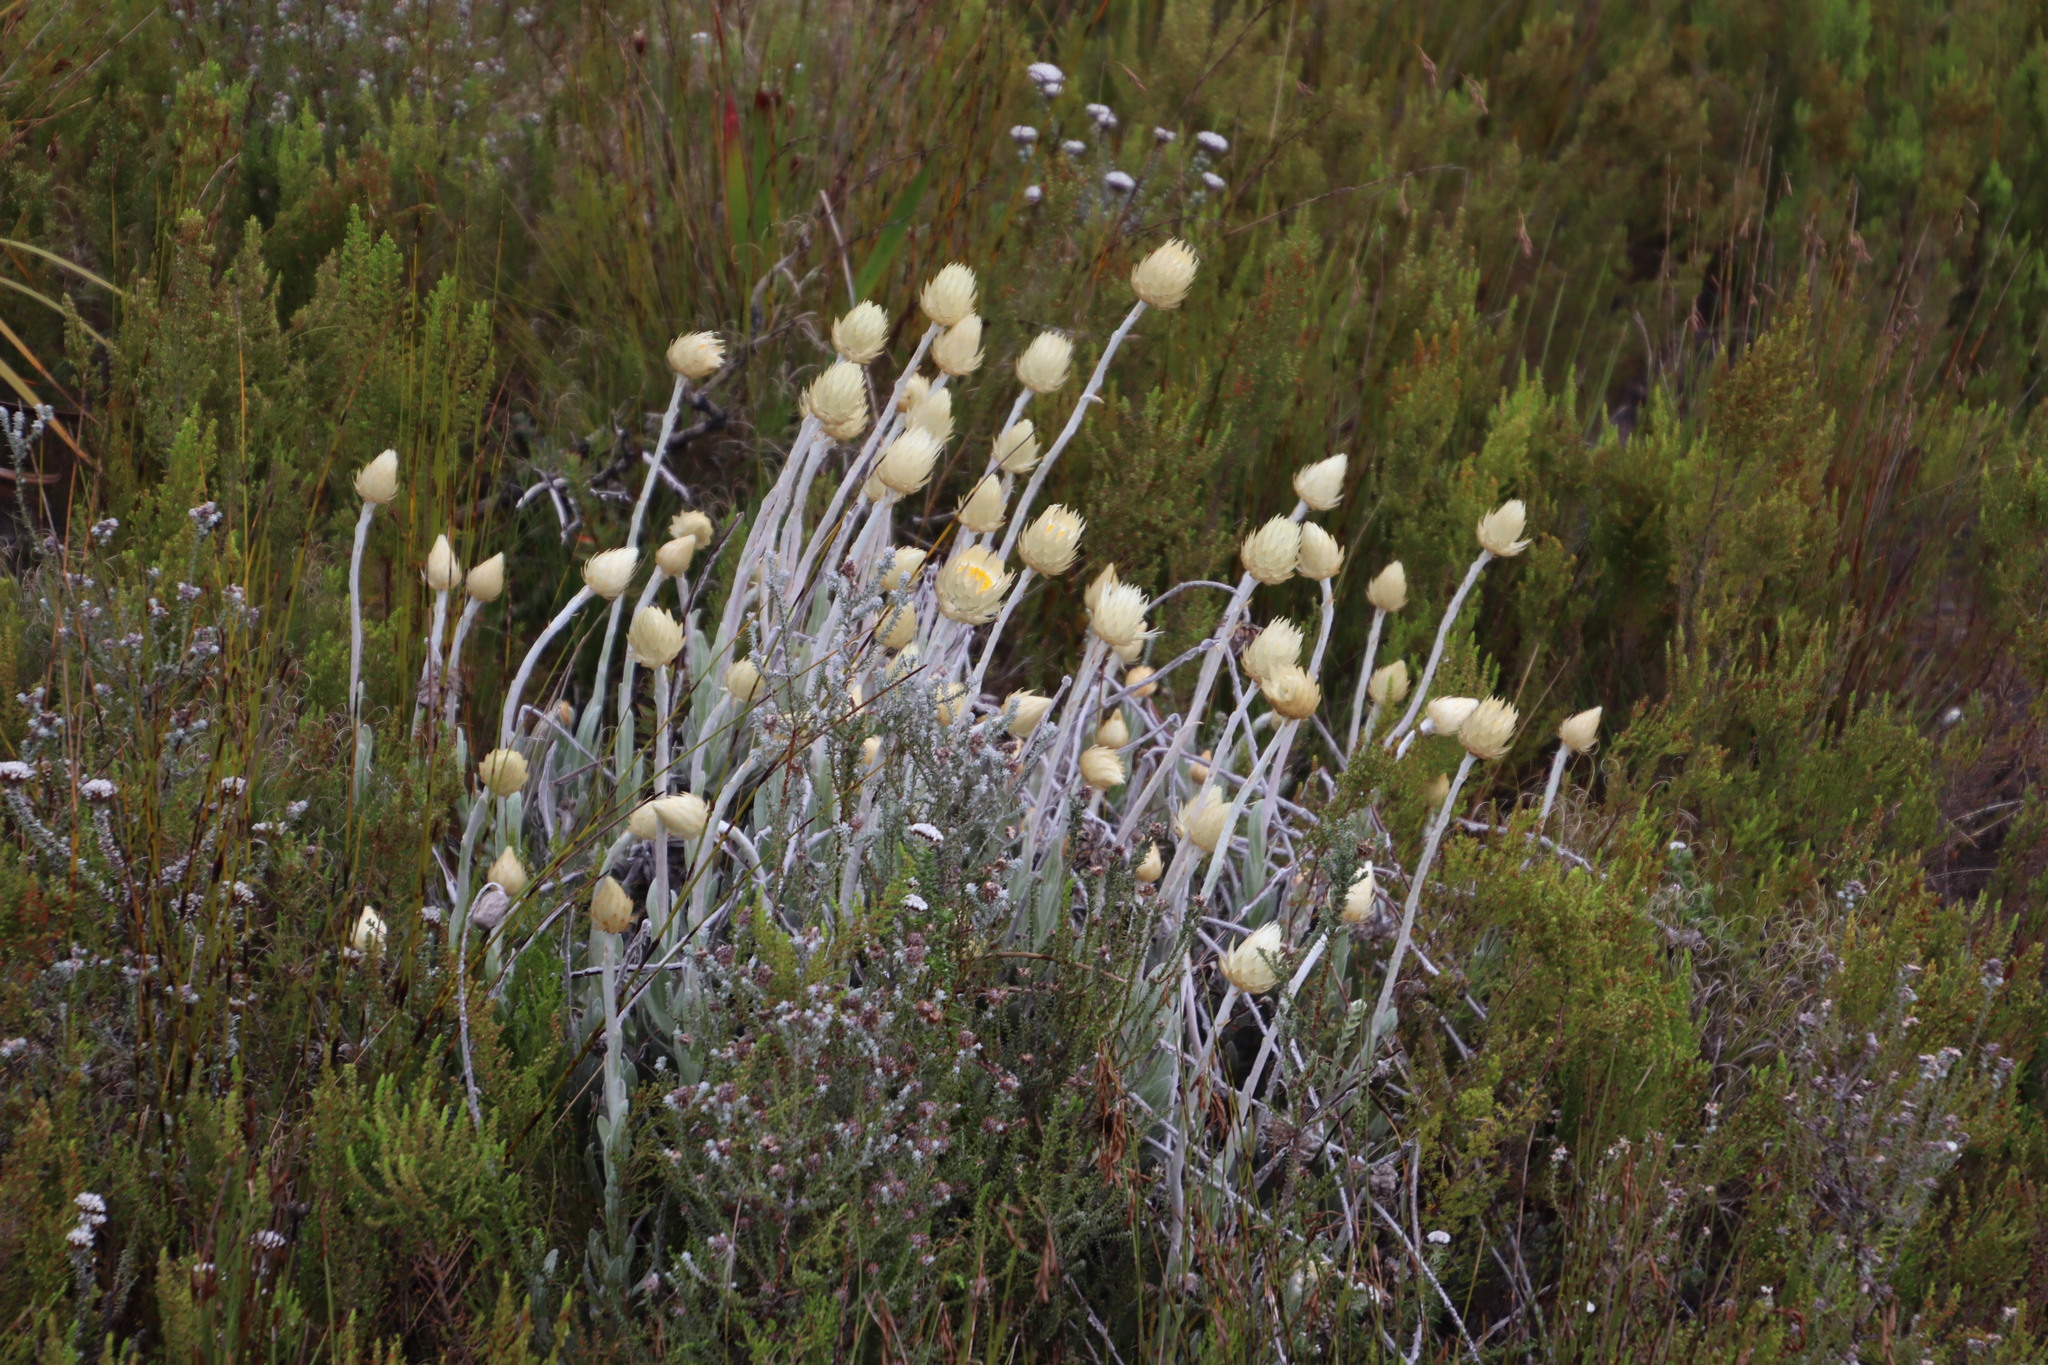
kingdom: Plantae
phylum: Tracheophyta
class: Magnoliopsida
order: Asterales
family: Asteraceae
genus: Syncarpha
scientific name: Syncarpha speciosissima
